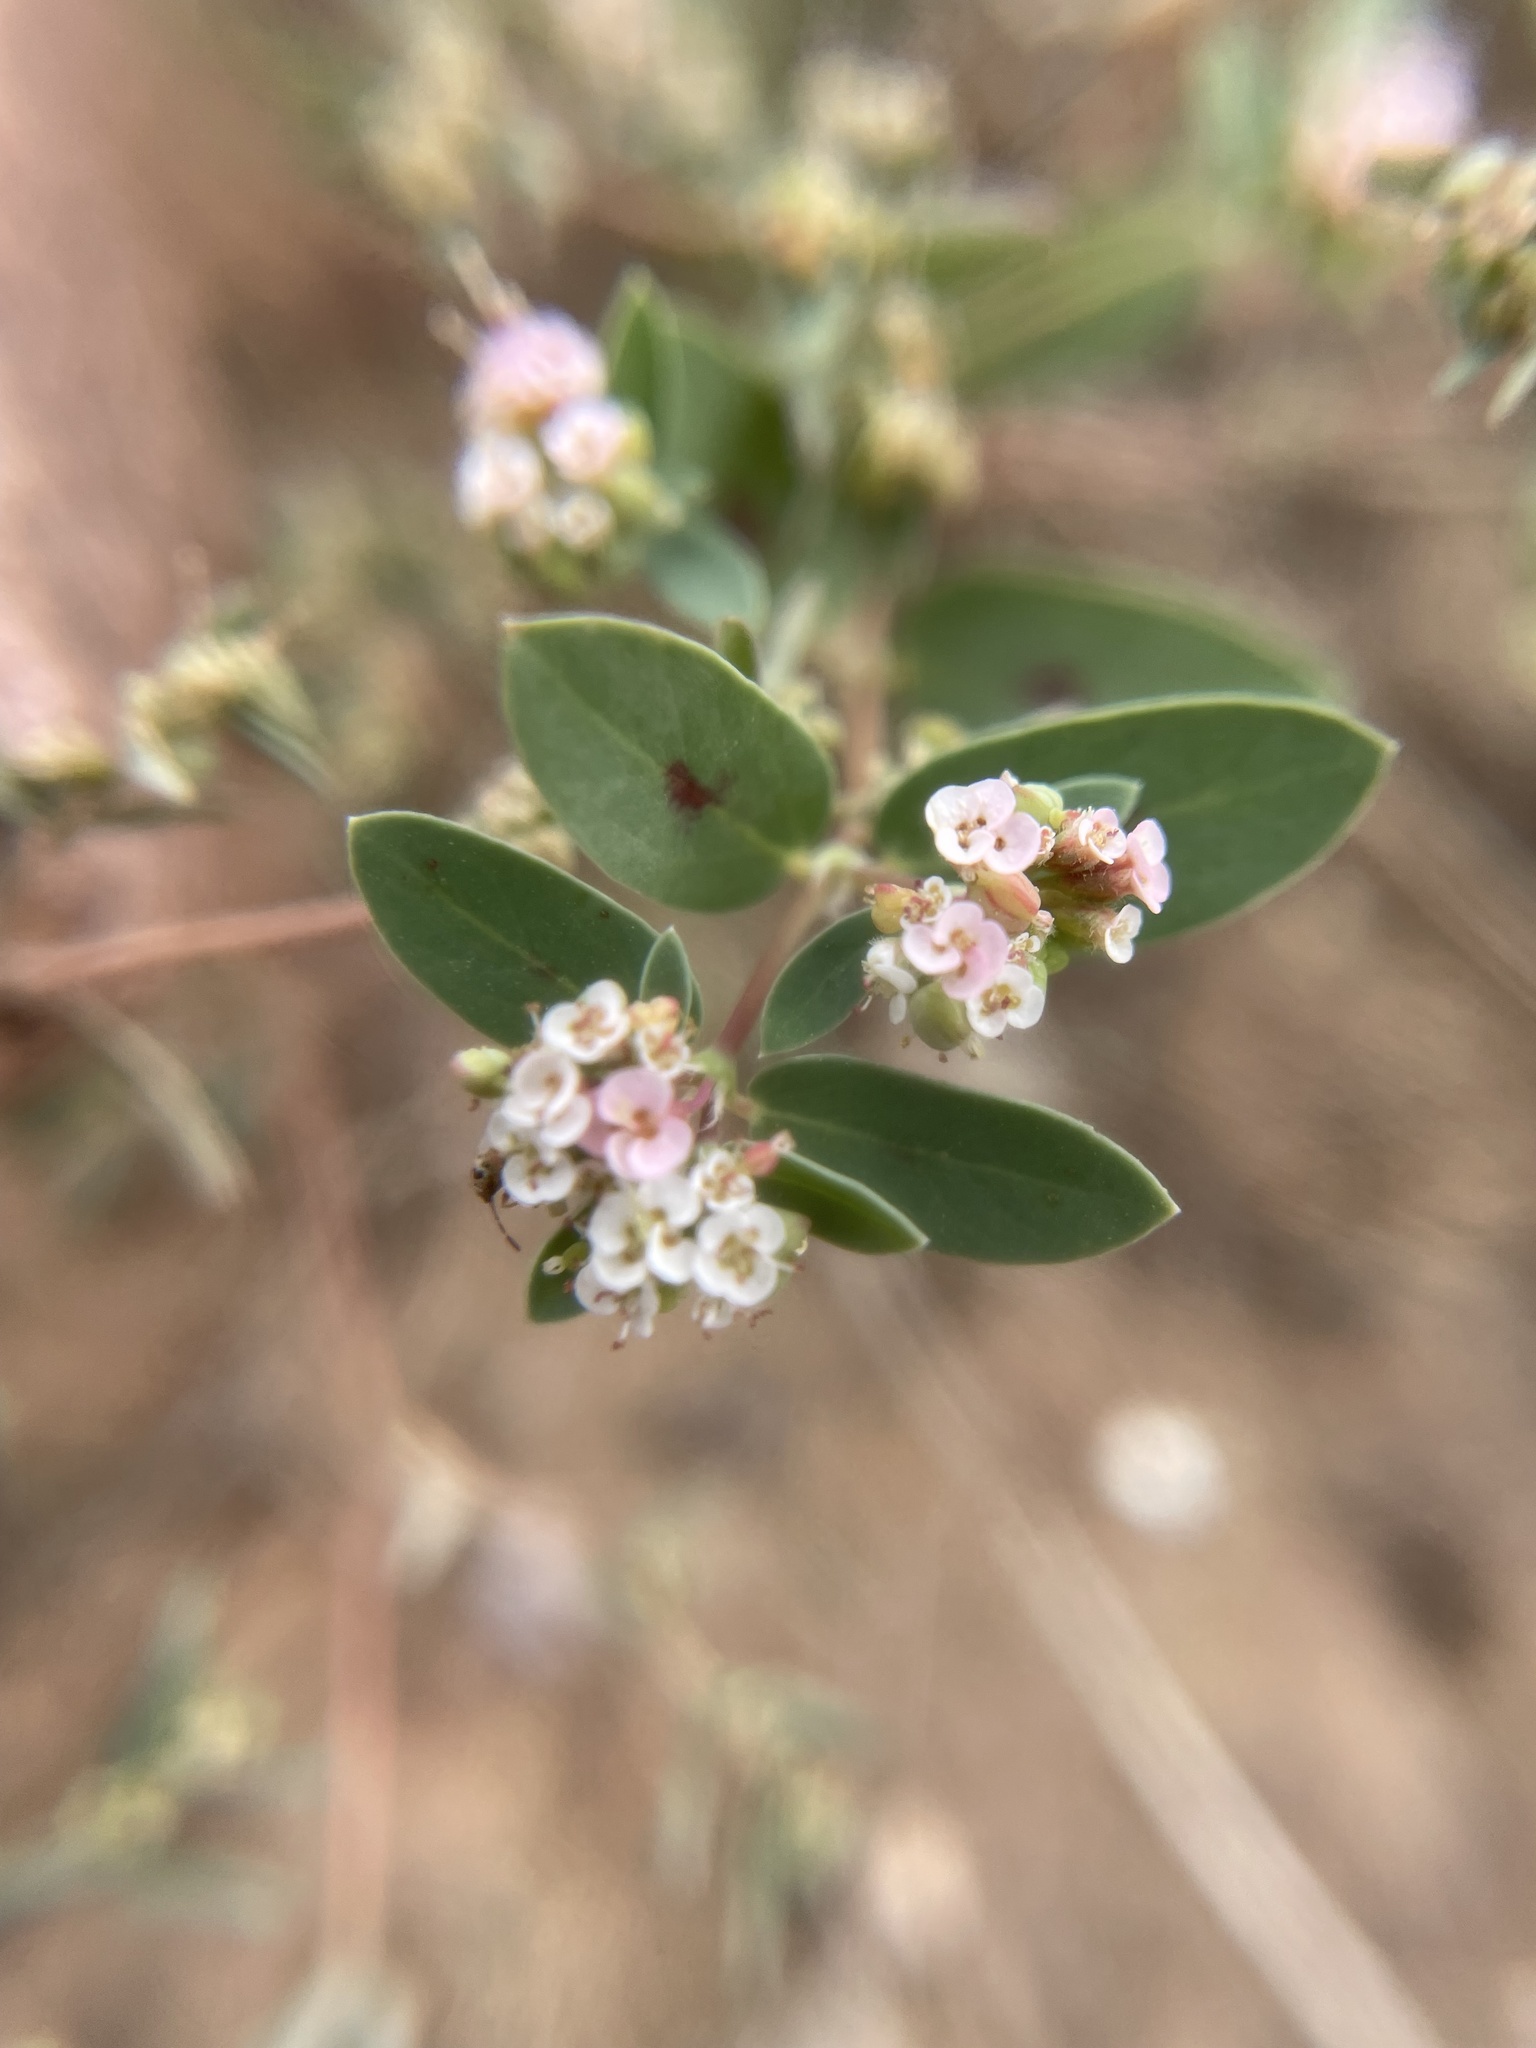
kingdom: Plantae
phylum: Tracheophyta
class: Magnoliopsida
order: Malpighiales
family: Euphorbiaceae
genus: Euphorbia
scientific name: Euphorbia capitellata
